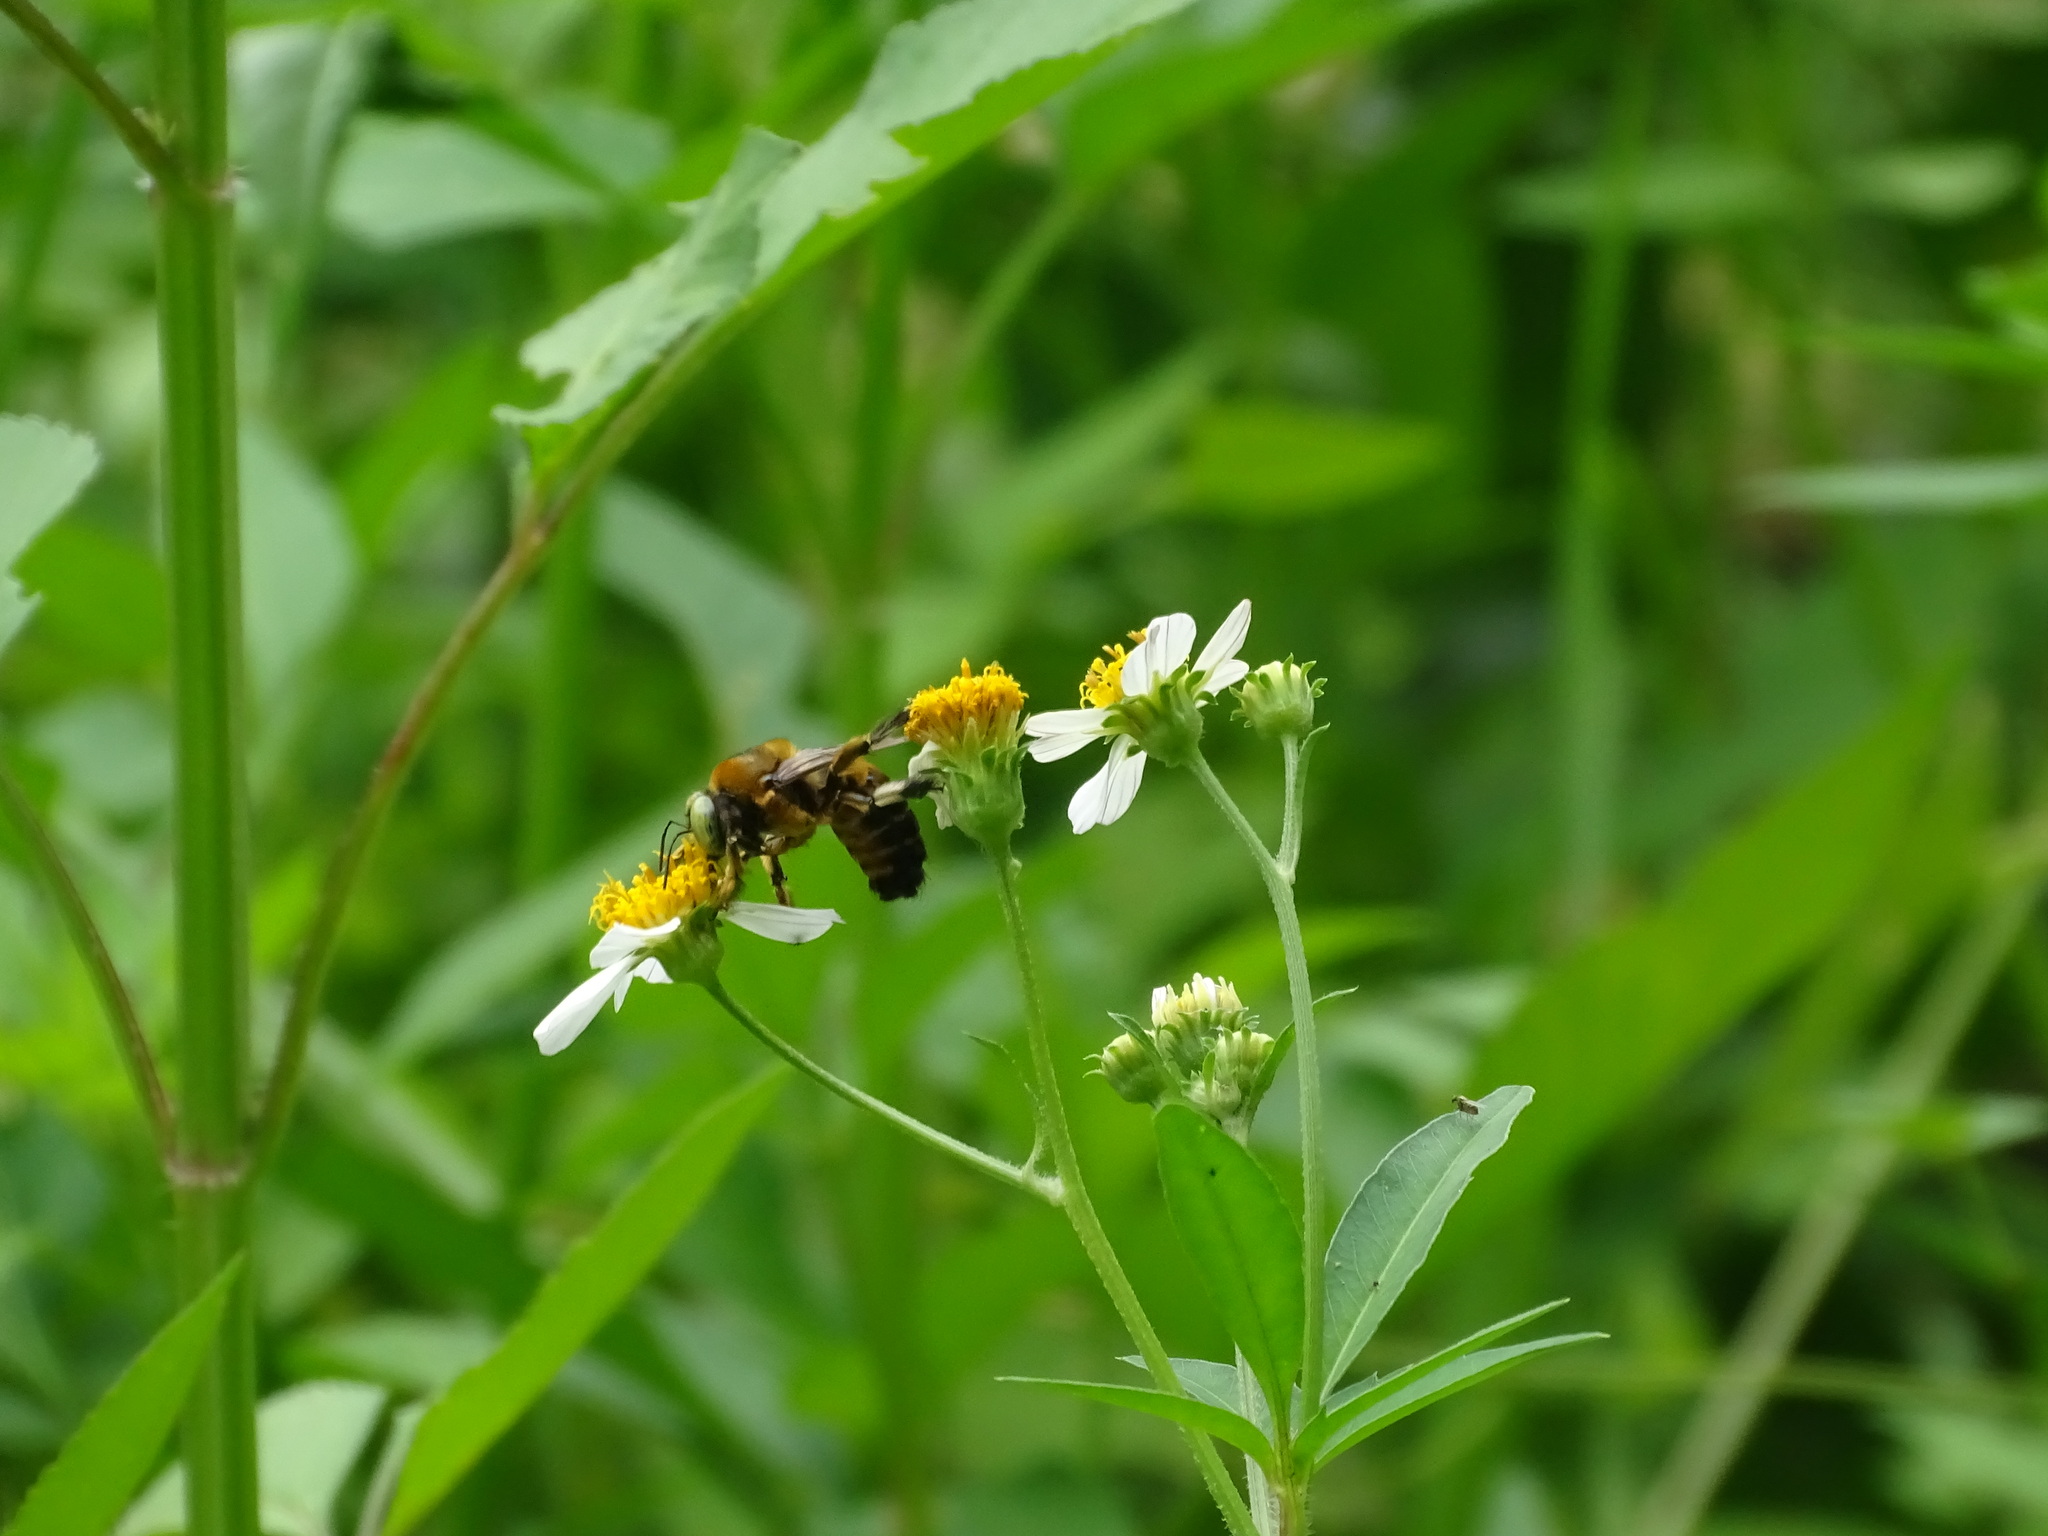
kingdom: Animalia
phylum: Arthropoda
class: Insecta
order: Hymenoptera
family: Apidae
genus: Xylocopa
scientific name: Xylocopa micans
